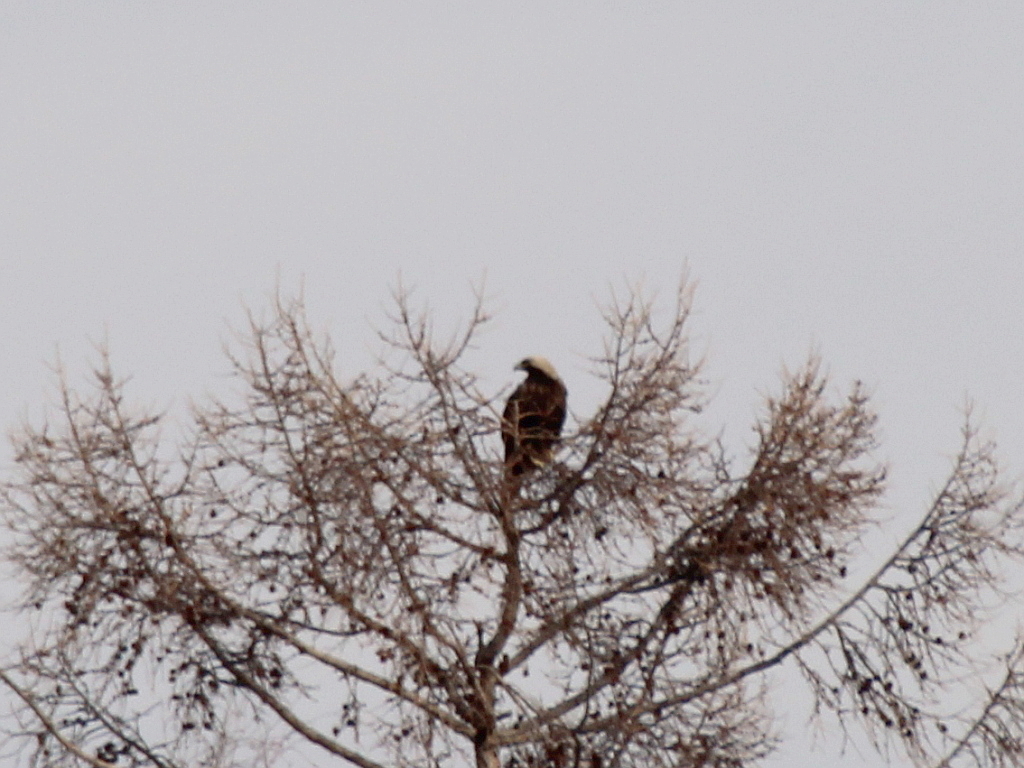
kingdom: Animalia
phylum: Chordata
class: Aves
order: Accipitriformes
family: Accipitridae
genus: Aquila
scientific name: Aquila heliaca
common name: Eastern imperial eagle
